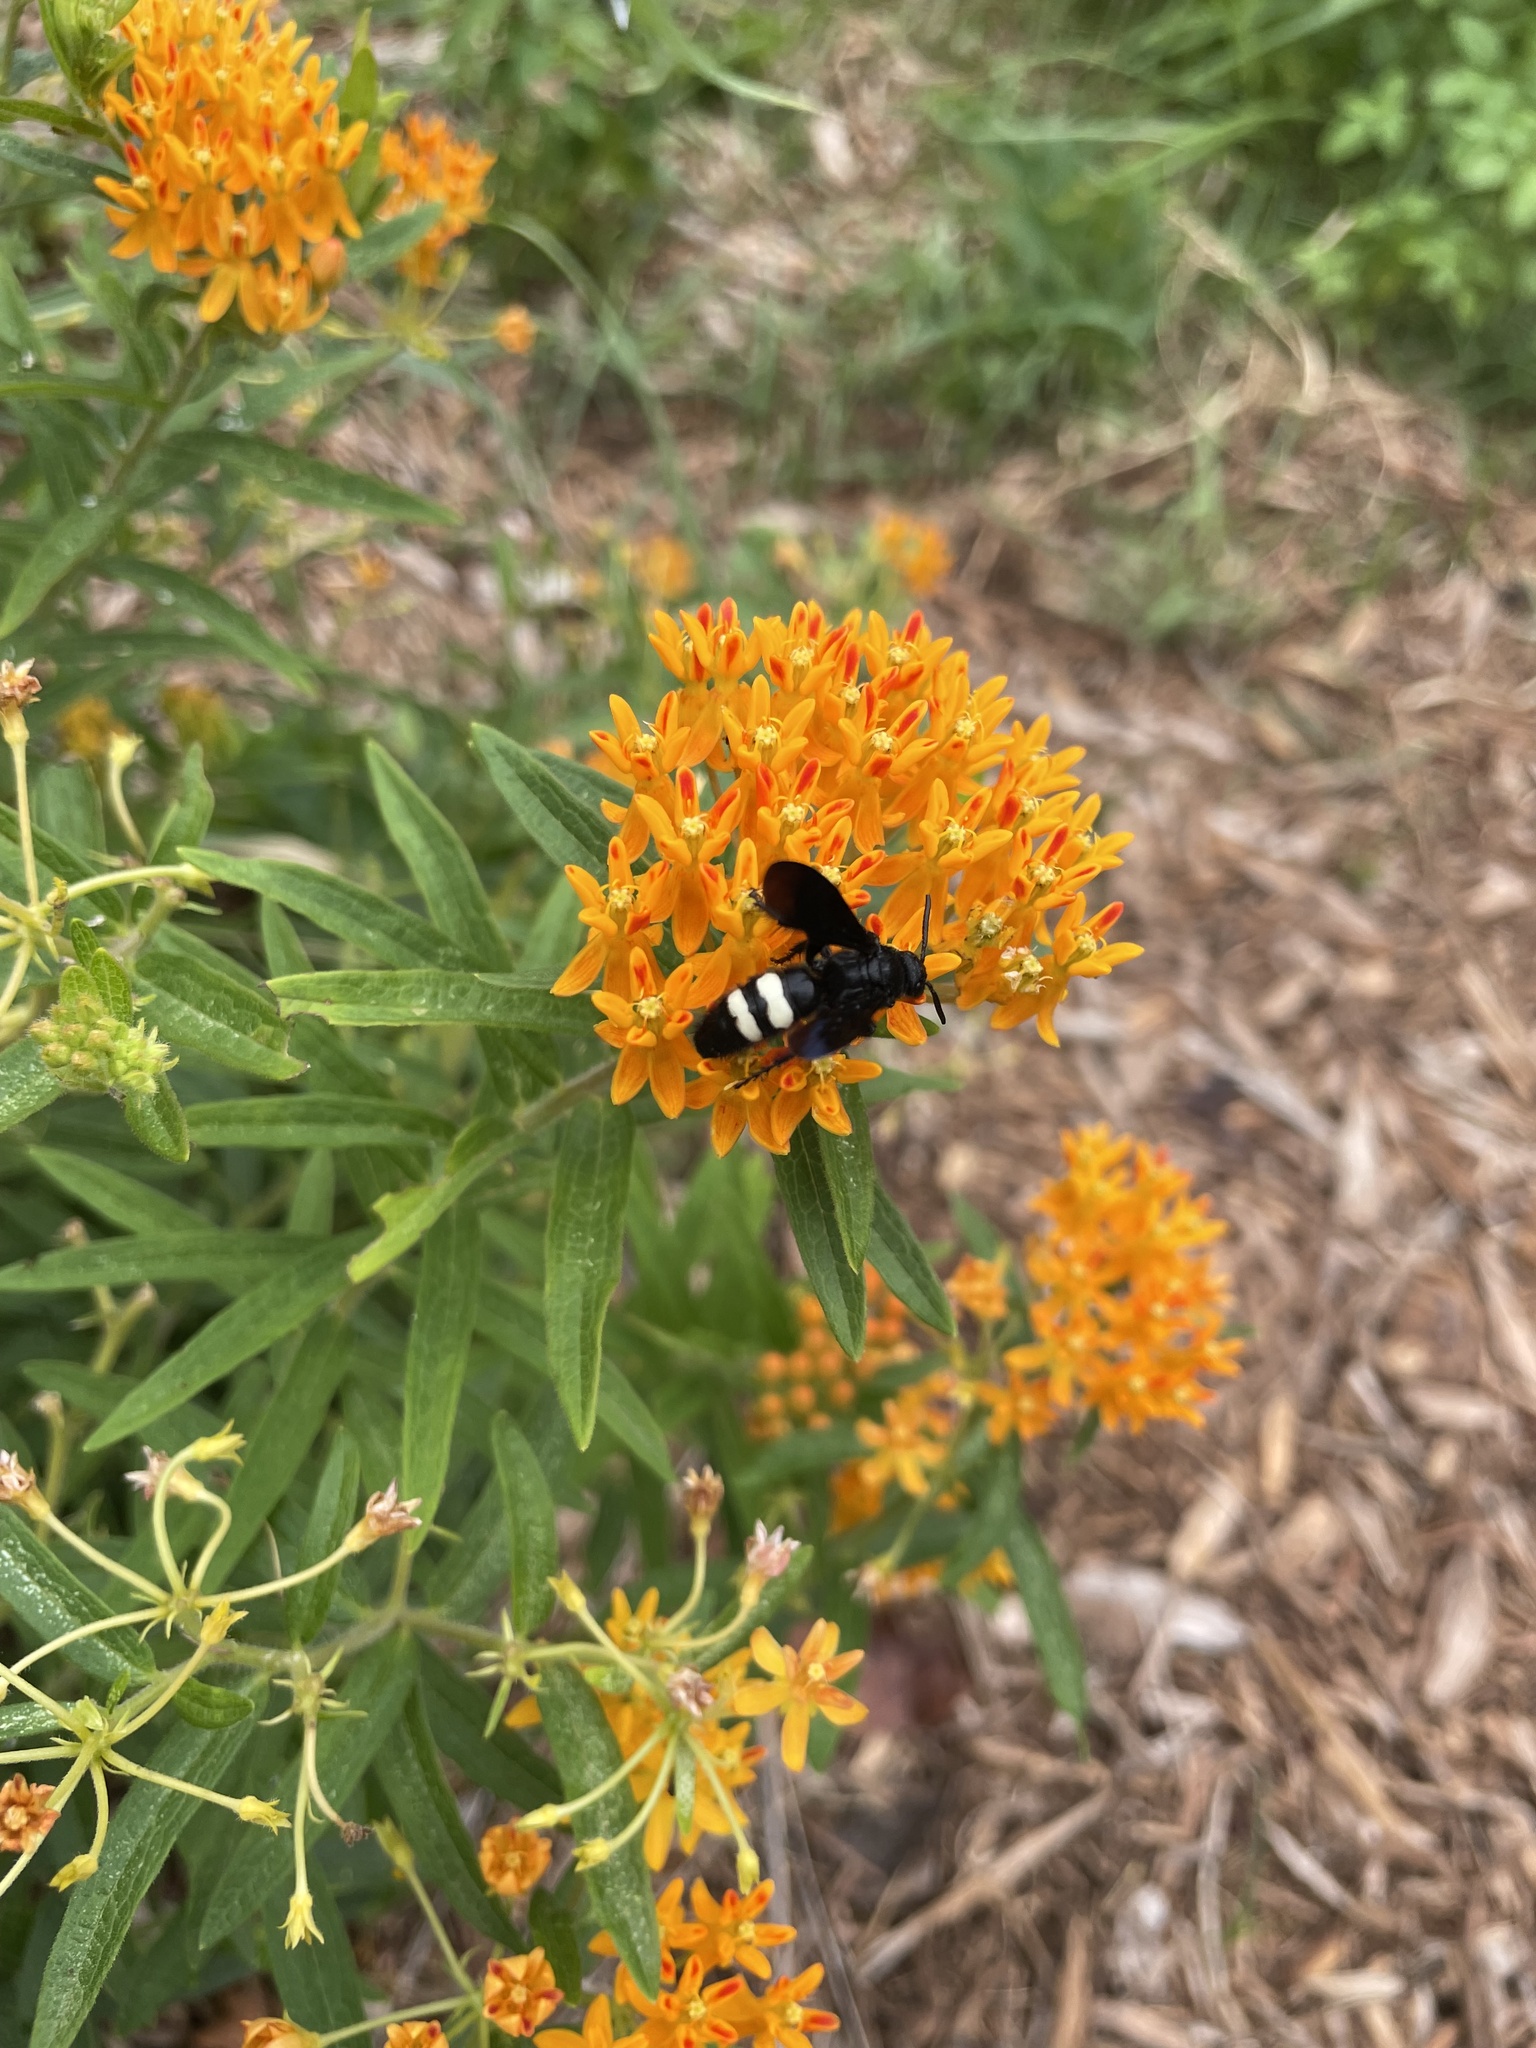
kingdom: Animalia
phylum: Arthropoda
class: Insecta
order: Hymenoptera
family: Scoliidae
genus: Scolia
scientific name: Scolia bicincta
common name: Double-banded scoliid wasp
